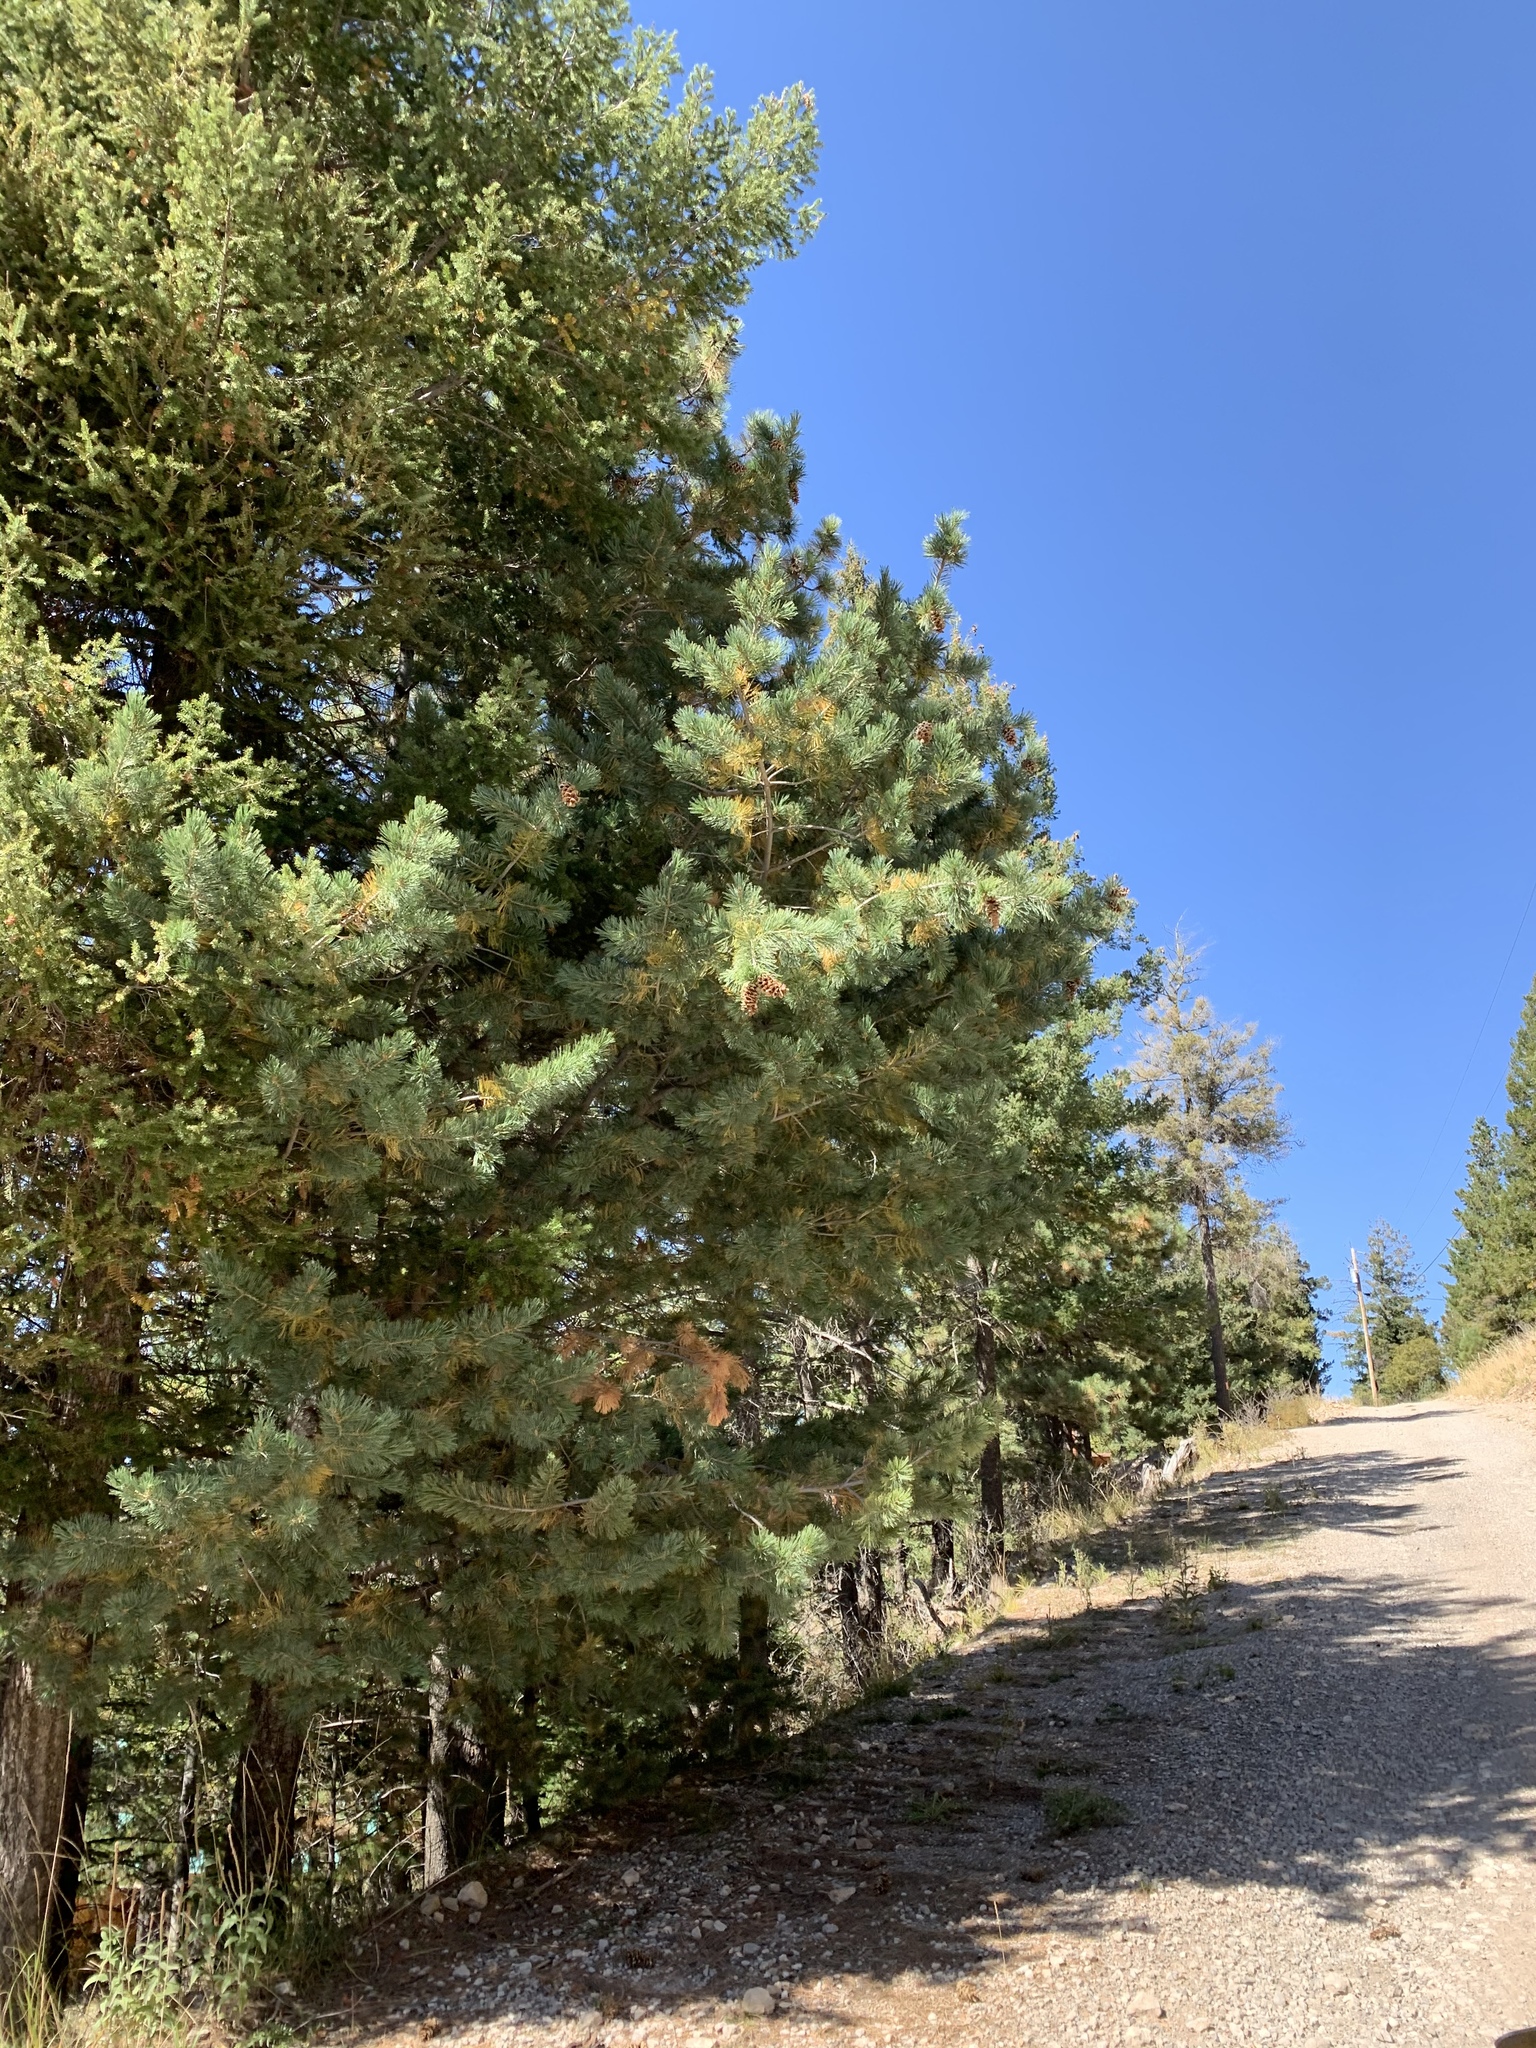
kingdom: Plantae
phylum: Tracheophyta
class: Pinopsida
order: Pinales
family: Pinaceae
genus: Pinus
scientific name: Pinus strobiformis
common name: Southwestern white pine
